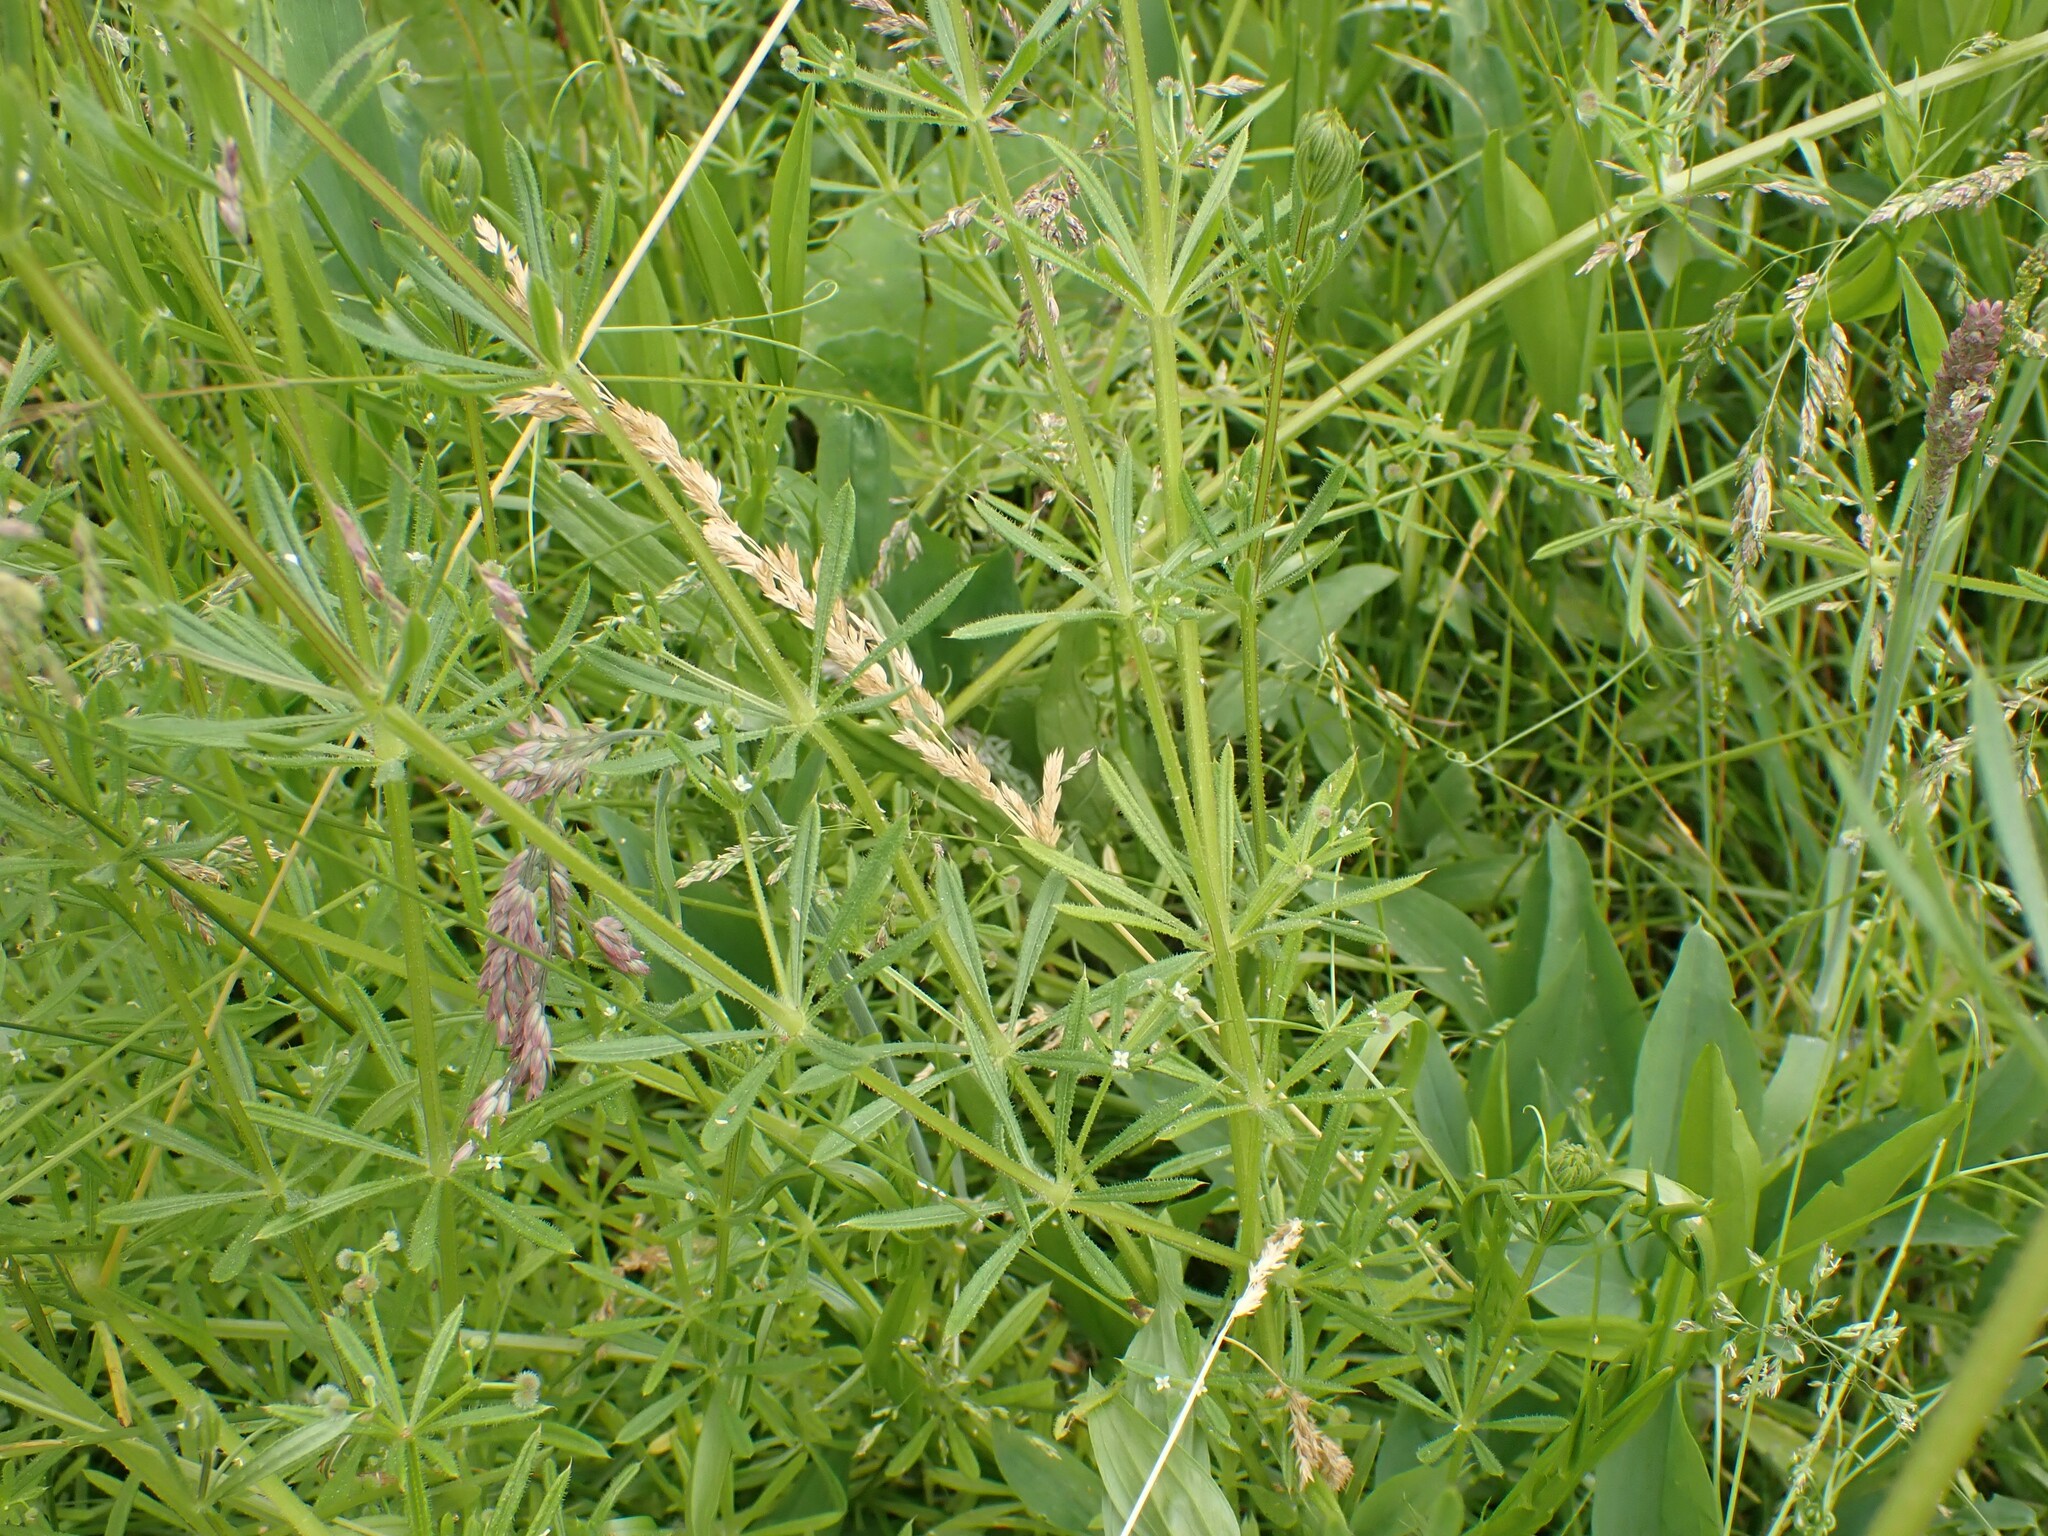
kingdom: Plantae
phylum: Tracheophyta
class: Magnoliopsida
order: Gentianales
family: Rubiaceae
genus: Galium
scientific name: Galium aparine
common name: Cleavers
